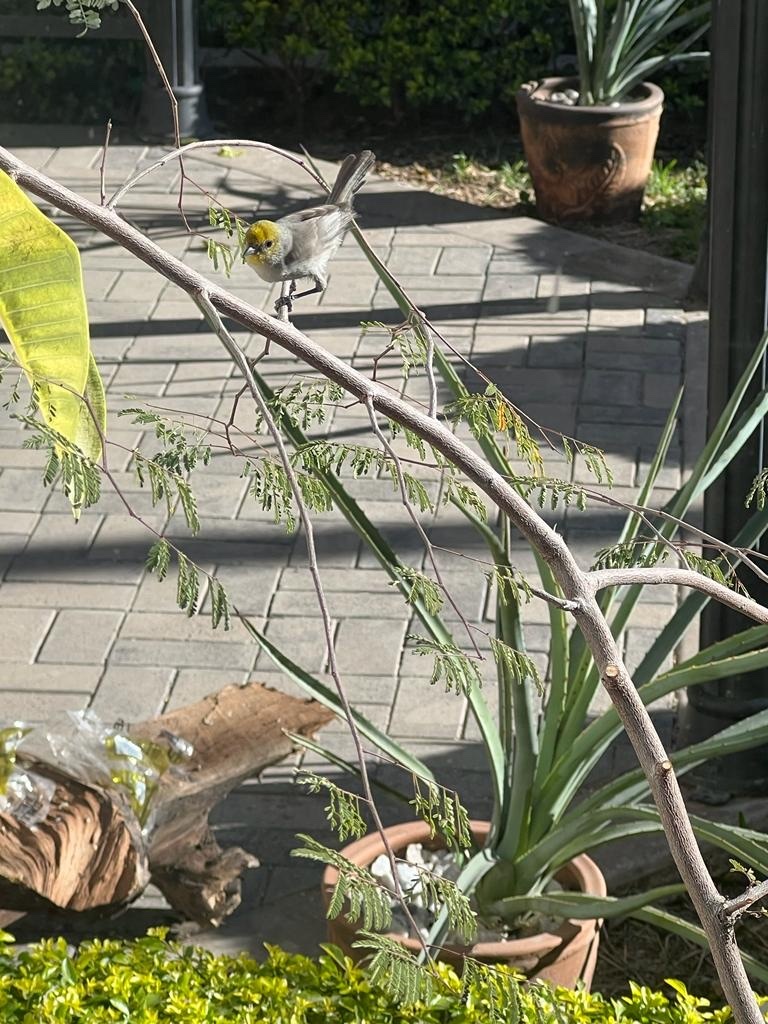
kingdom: Animalia
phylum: Chordata
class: Aves
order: Passeriformes
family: Remizidae
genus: Auriparus
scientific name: Auriparus flaviceps
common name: Verdin
